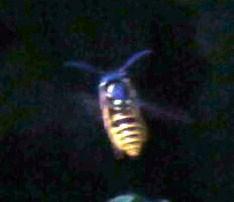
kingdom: Animalia
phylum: Arthropoda
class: Insecta
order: Hymenoptera
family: Vespidae
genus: Vespula
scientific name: Vespula germanica
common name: German wasp
